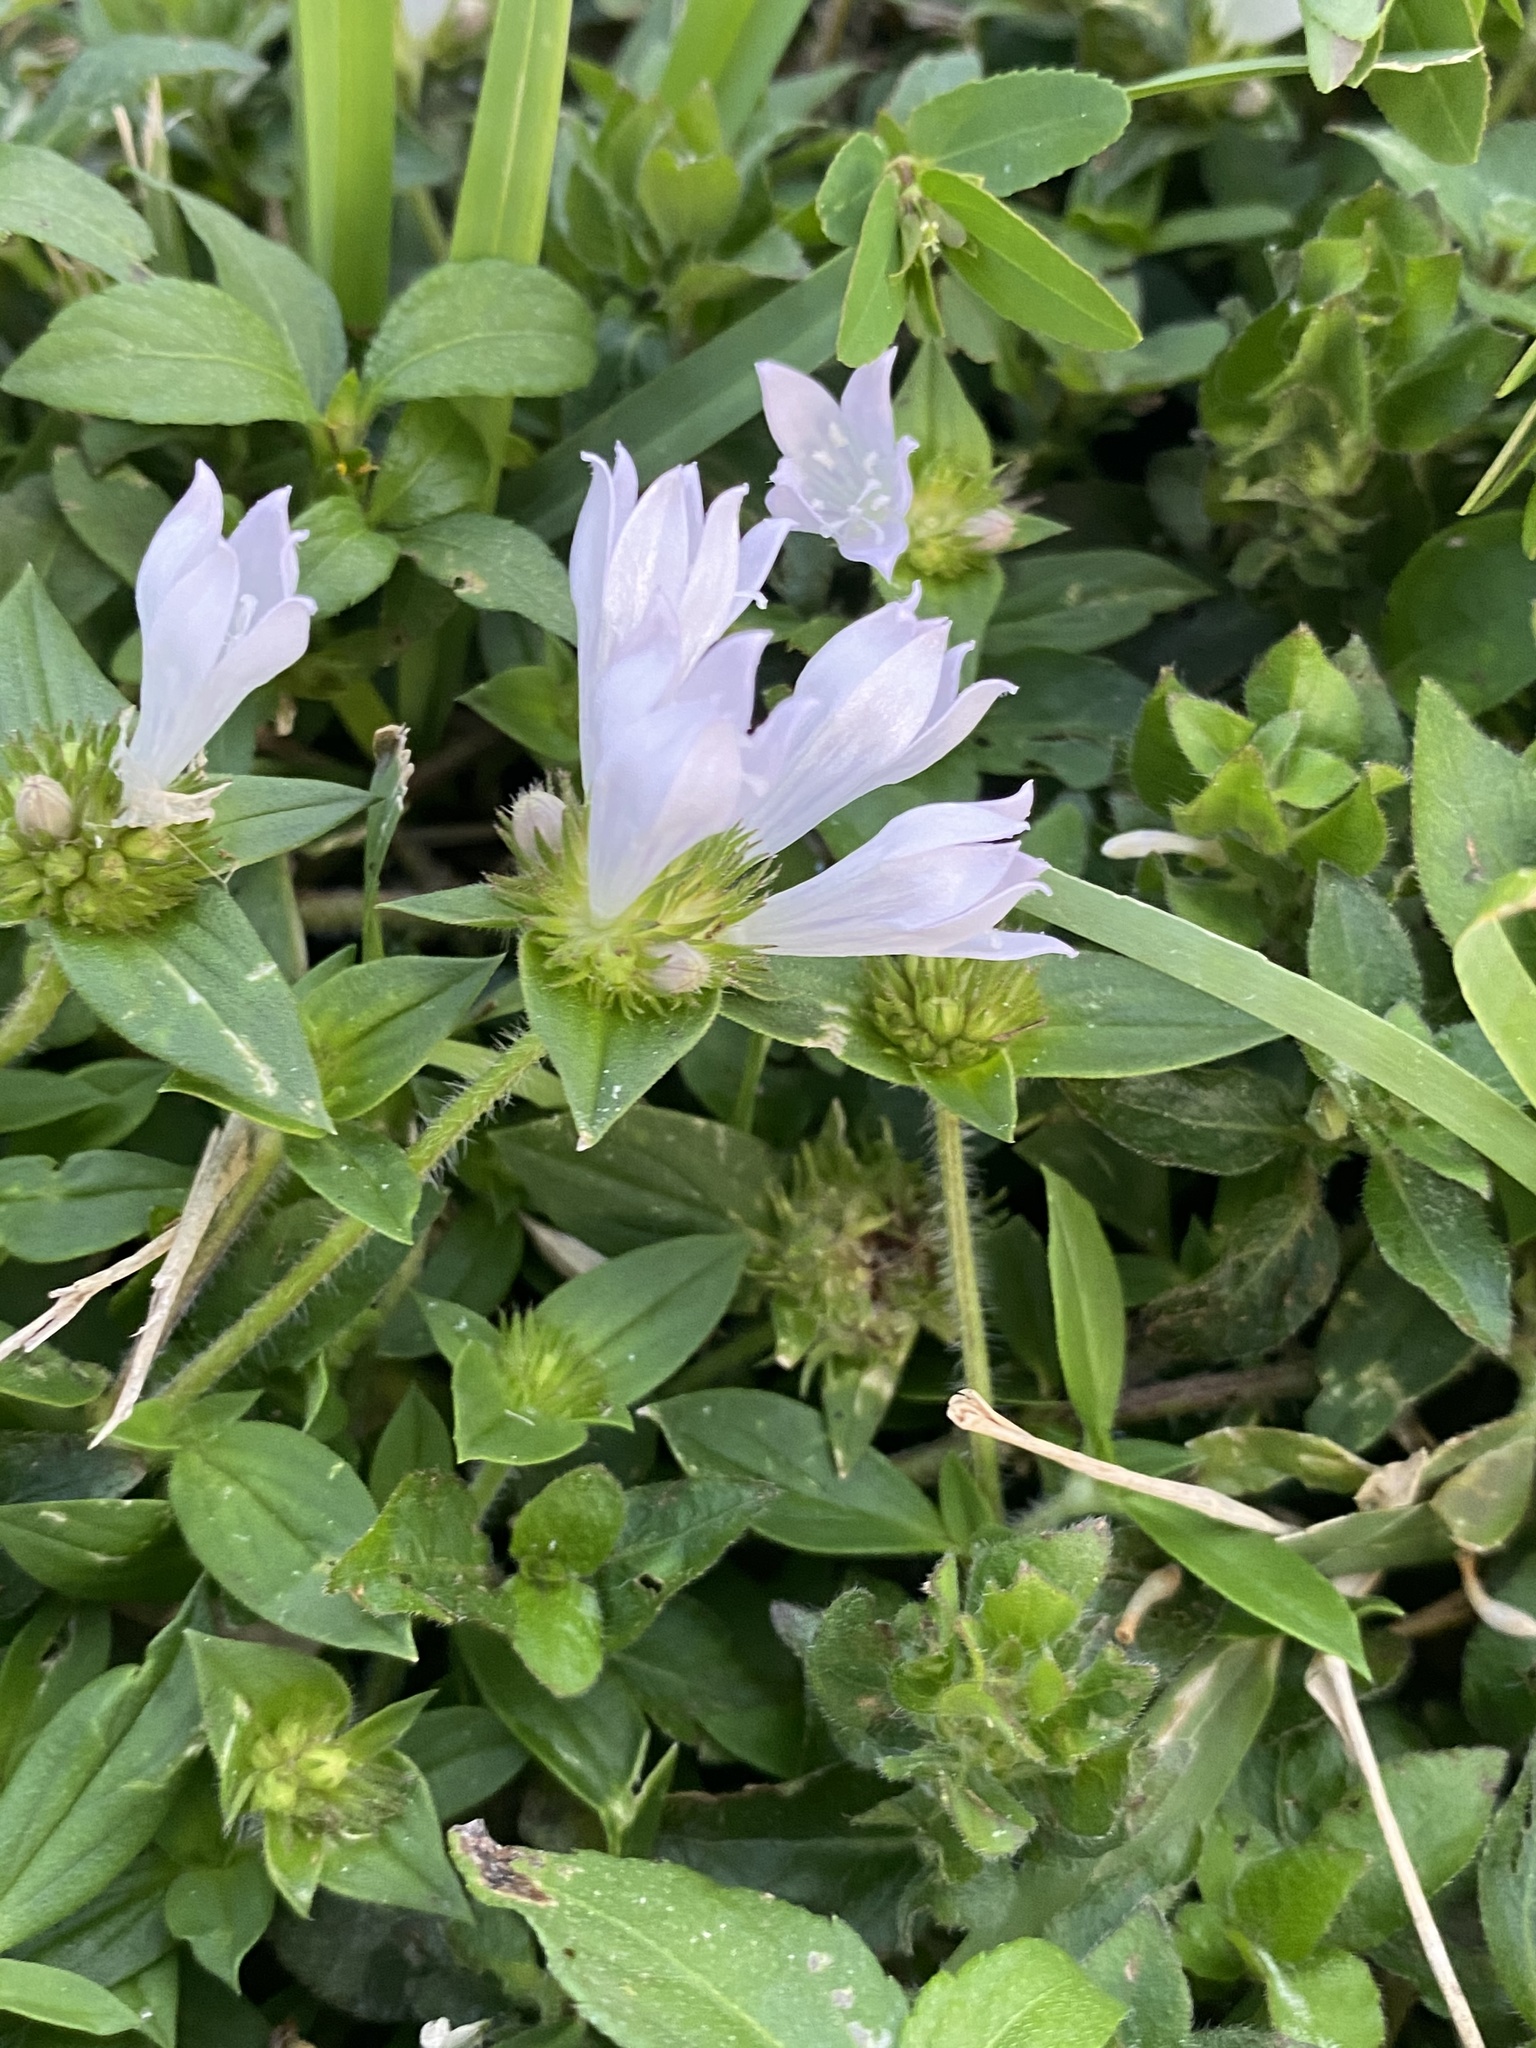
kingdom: Plantae
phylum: Tracheophyta
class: Magnoliopsida
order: Gentianales
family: Rubiaceae
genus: Richardia
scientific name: Richardia grandiflora
